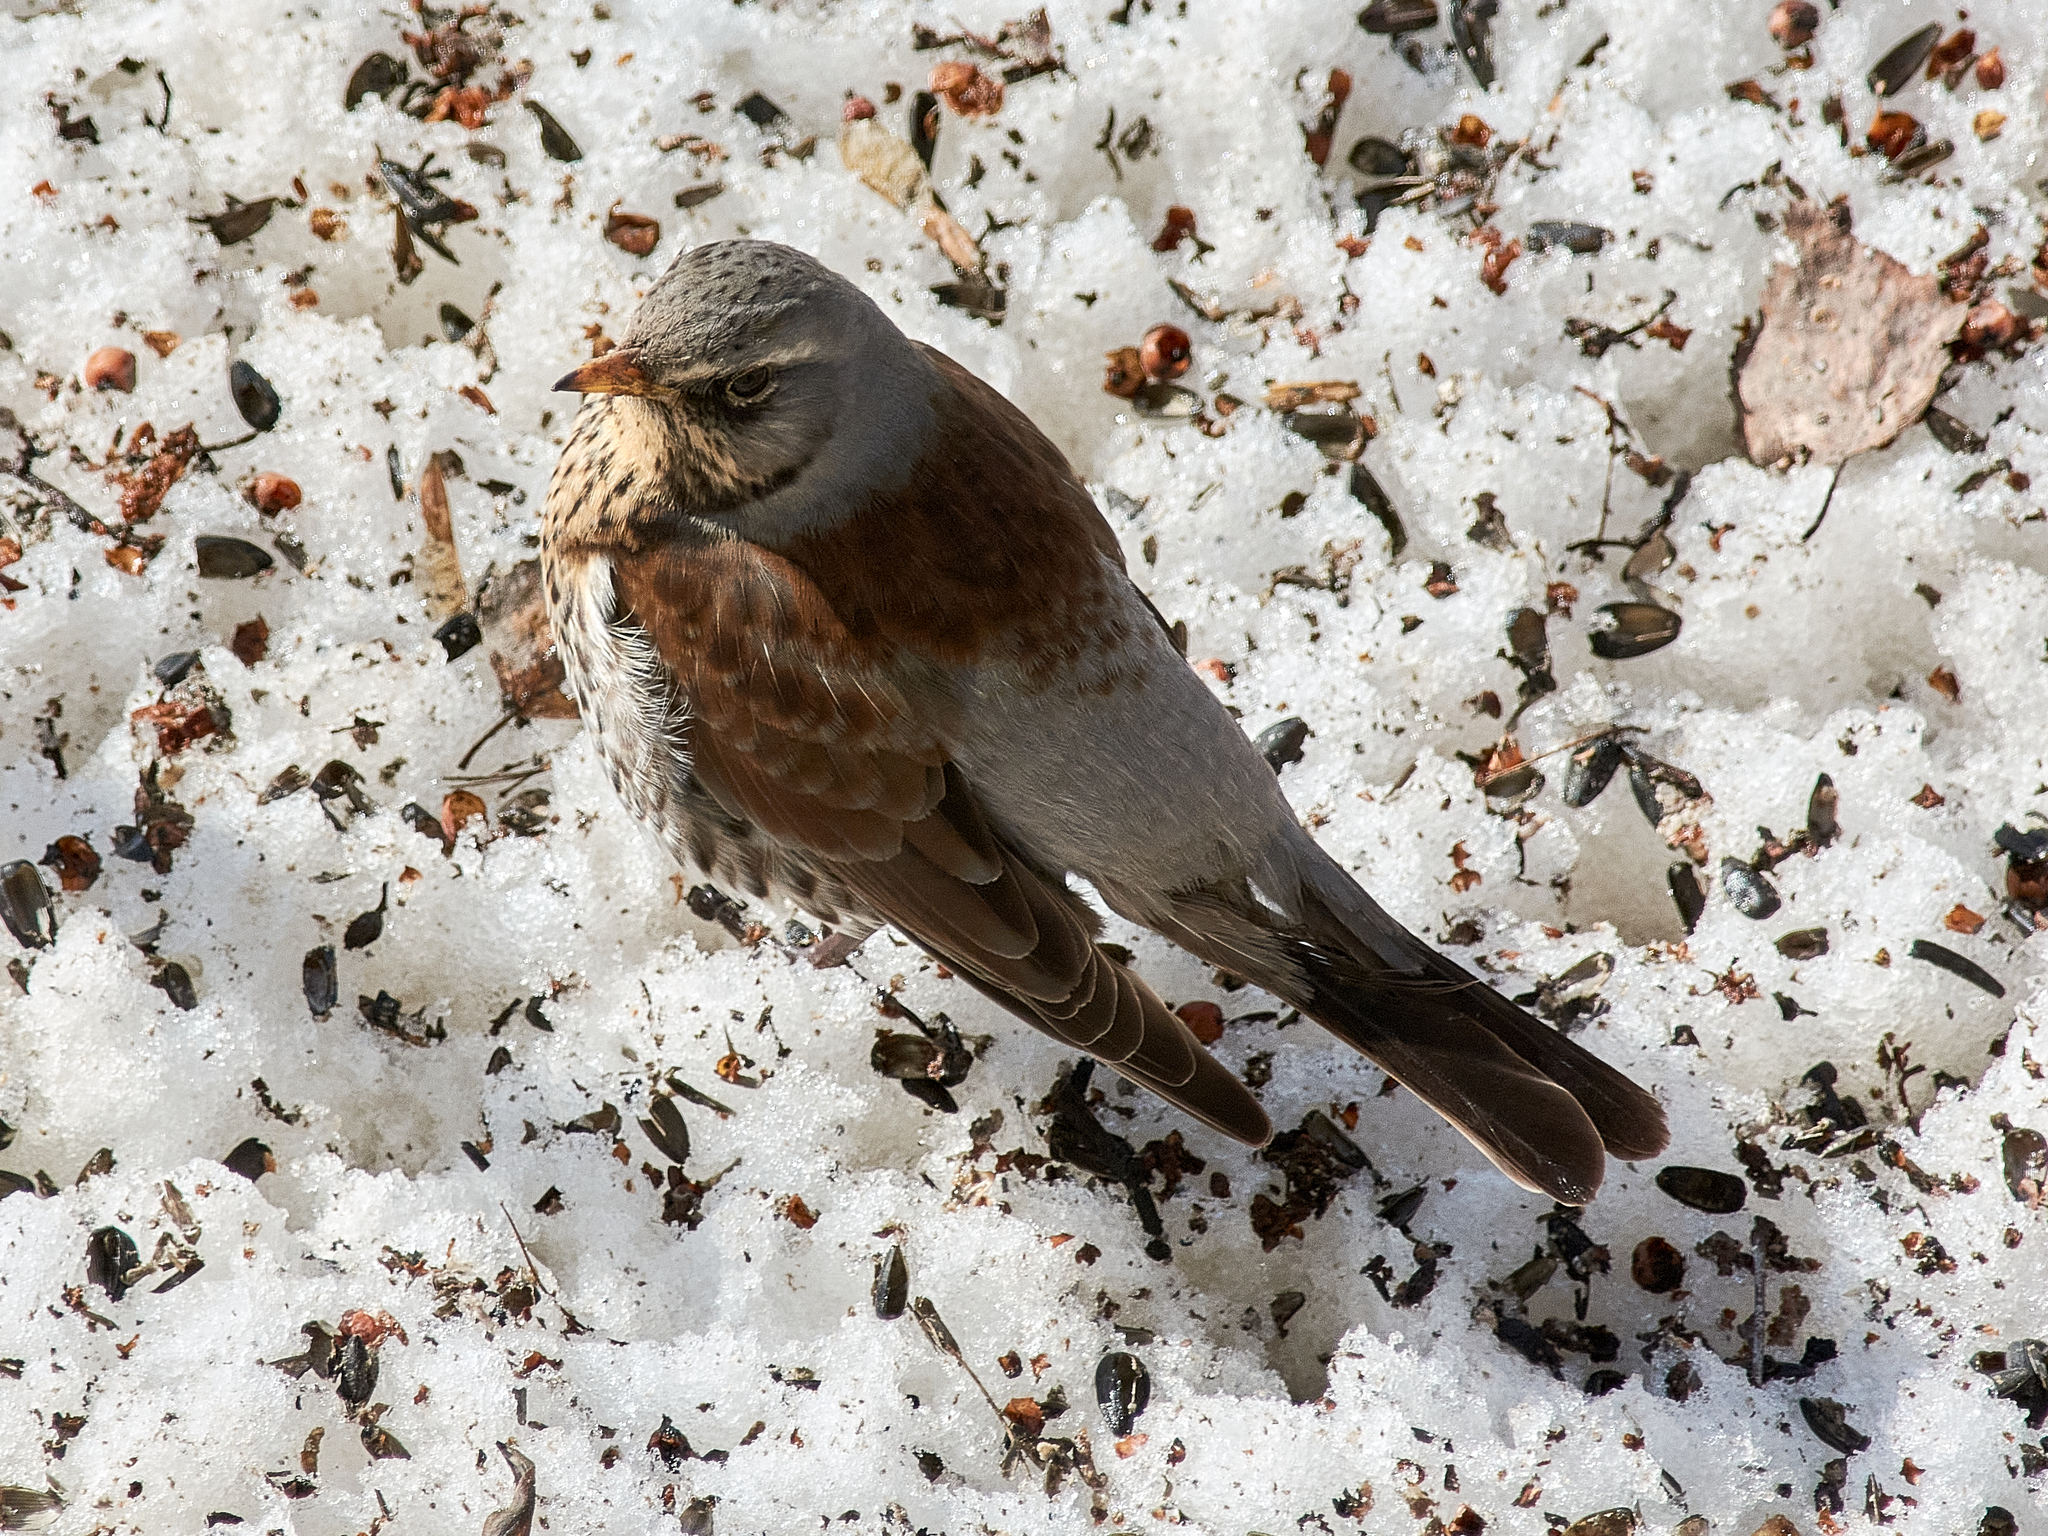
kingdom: Animalia
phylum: Chordata
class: Aves
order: Passeriformes
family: Turdidae
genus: Turdus
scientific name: Turdus pilaris
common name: Fieldfare
